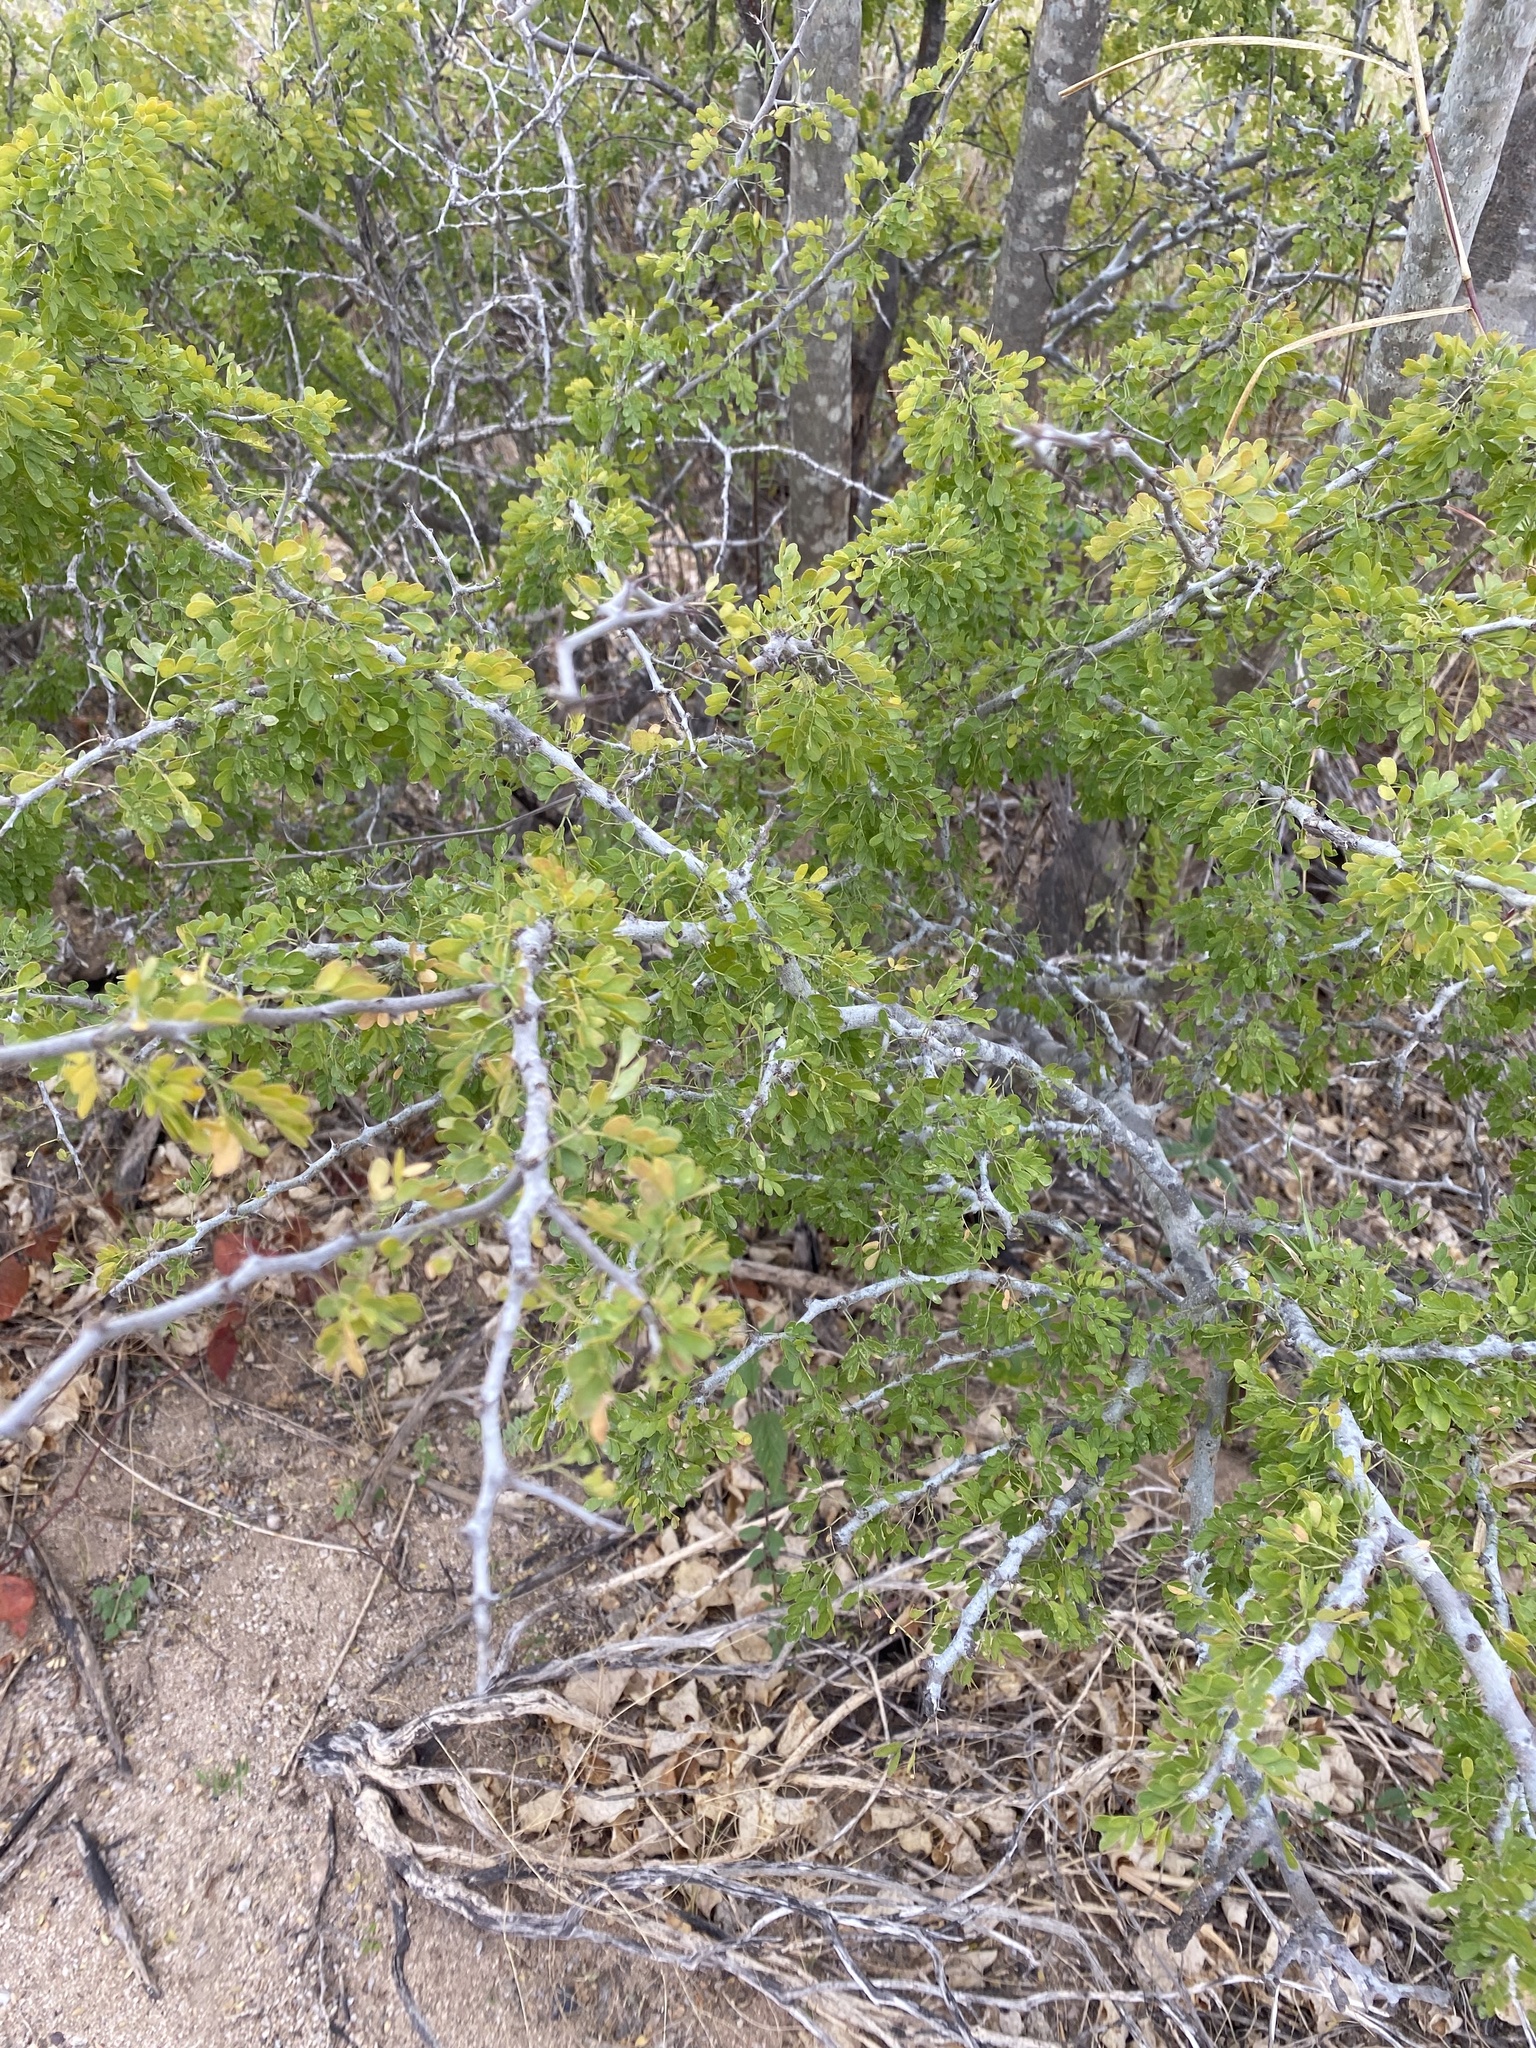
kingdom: Plantae
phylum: Tracheophyta
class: Magnoliopsida
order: Fabales
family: Fabaceae
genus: Ebenopsis
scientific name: Ebenopsis confinis
